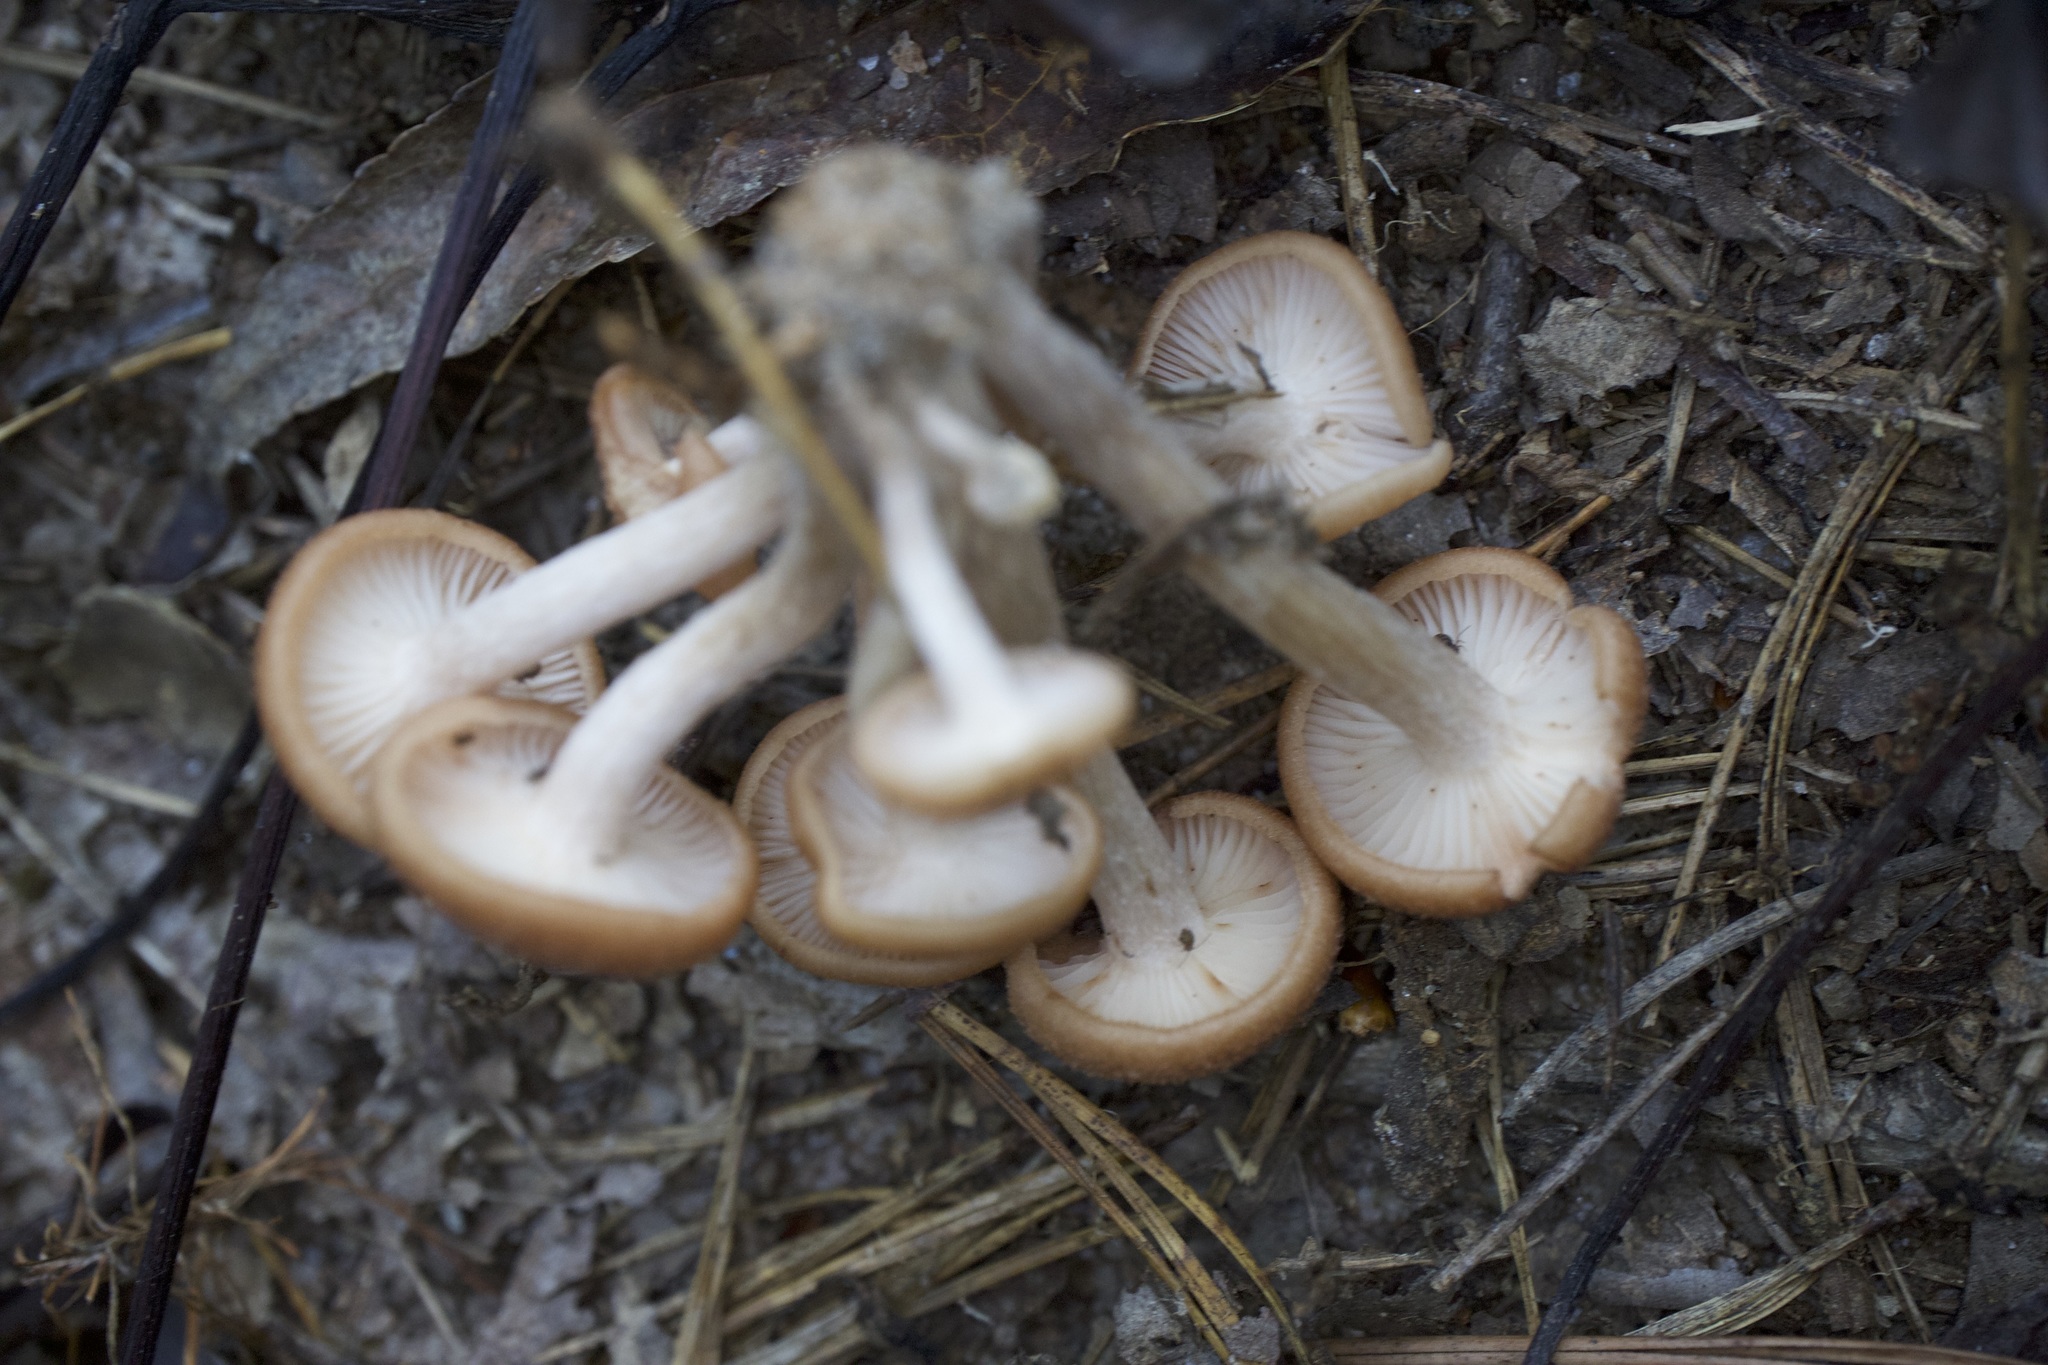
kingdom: Fungi
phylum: Basidiomycota
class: Agaricomycetes
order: Agaricales
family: Physalacriaceae
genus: Desarmillaria
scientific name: Desarmillaria caespitosa
